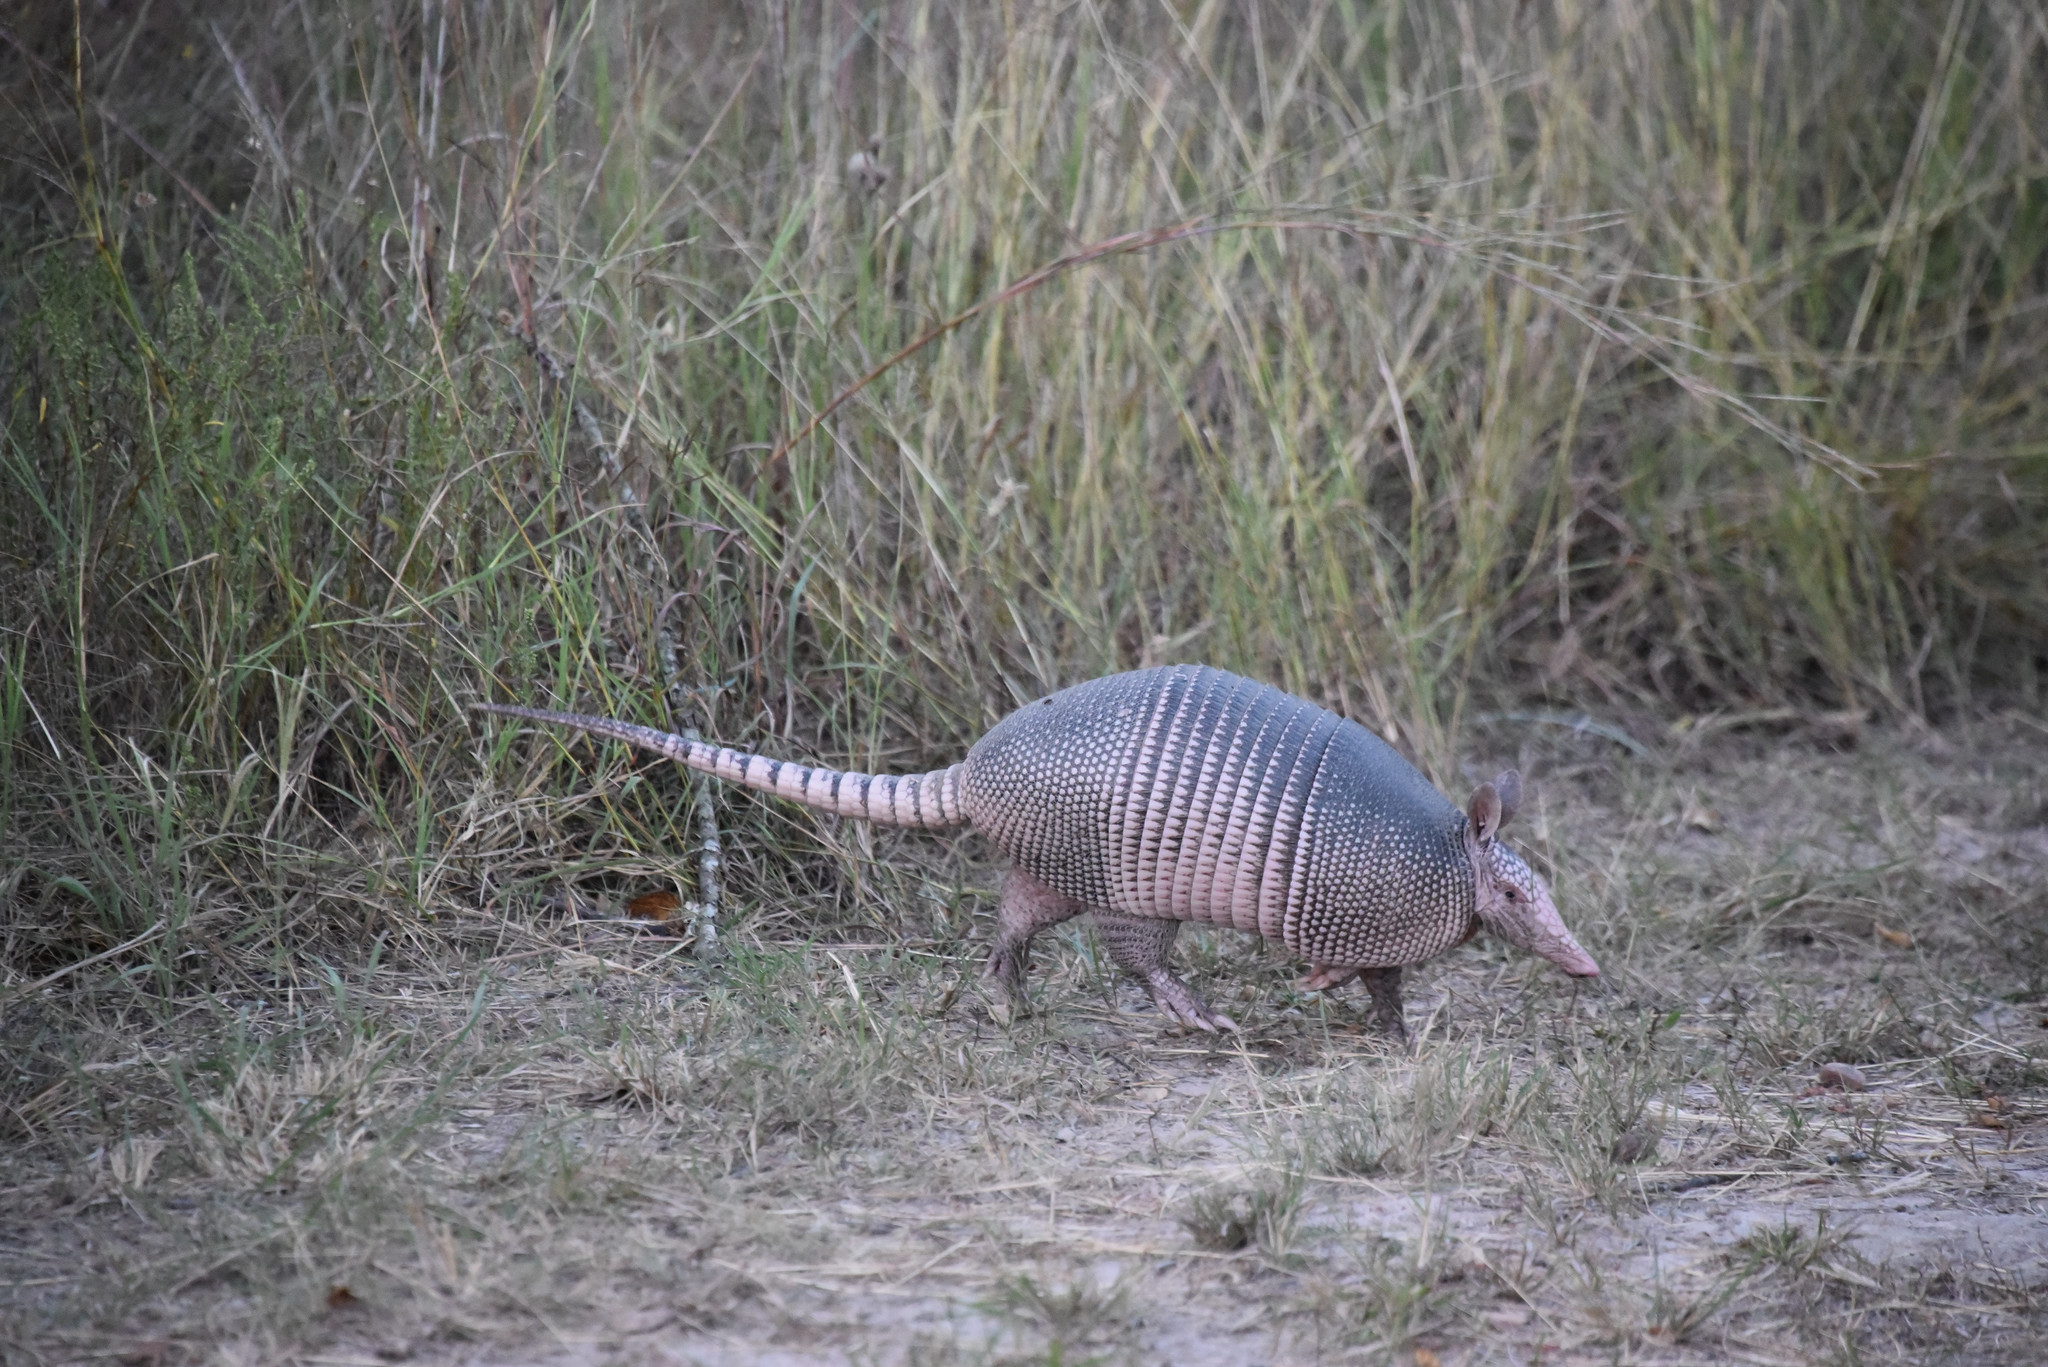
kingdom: Animalia
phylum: Chordata
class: Mammalia
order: Cingulata
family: Dasypodidae
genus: Dasypus
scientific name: Dasypus novemcinctus
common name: Nine-banded armadillo
